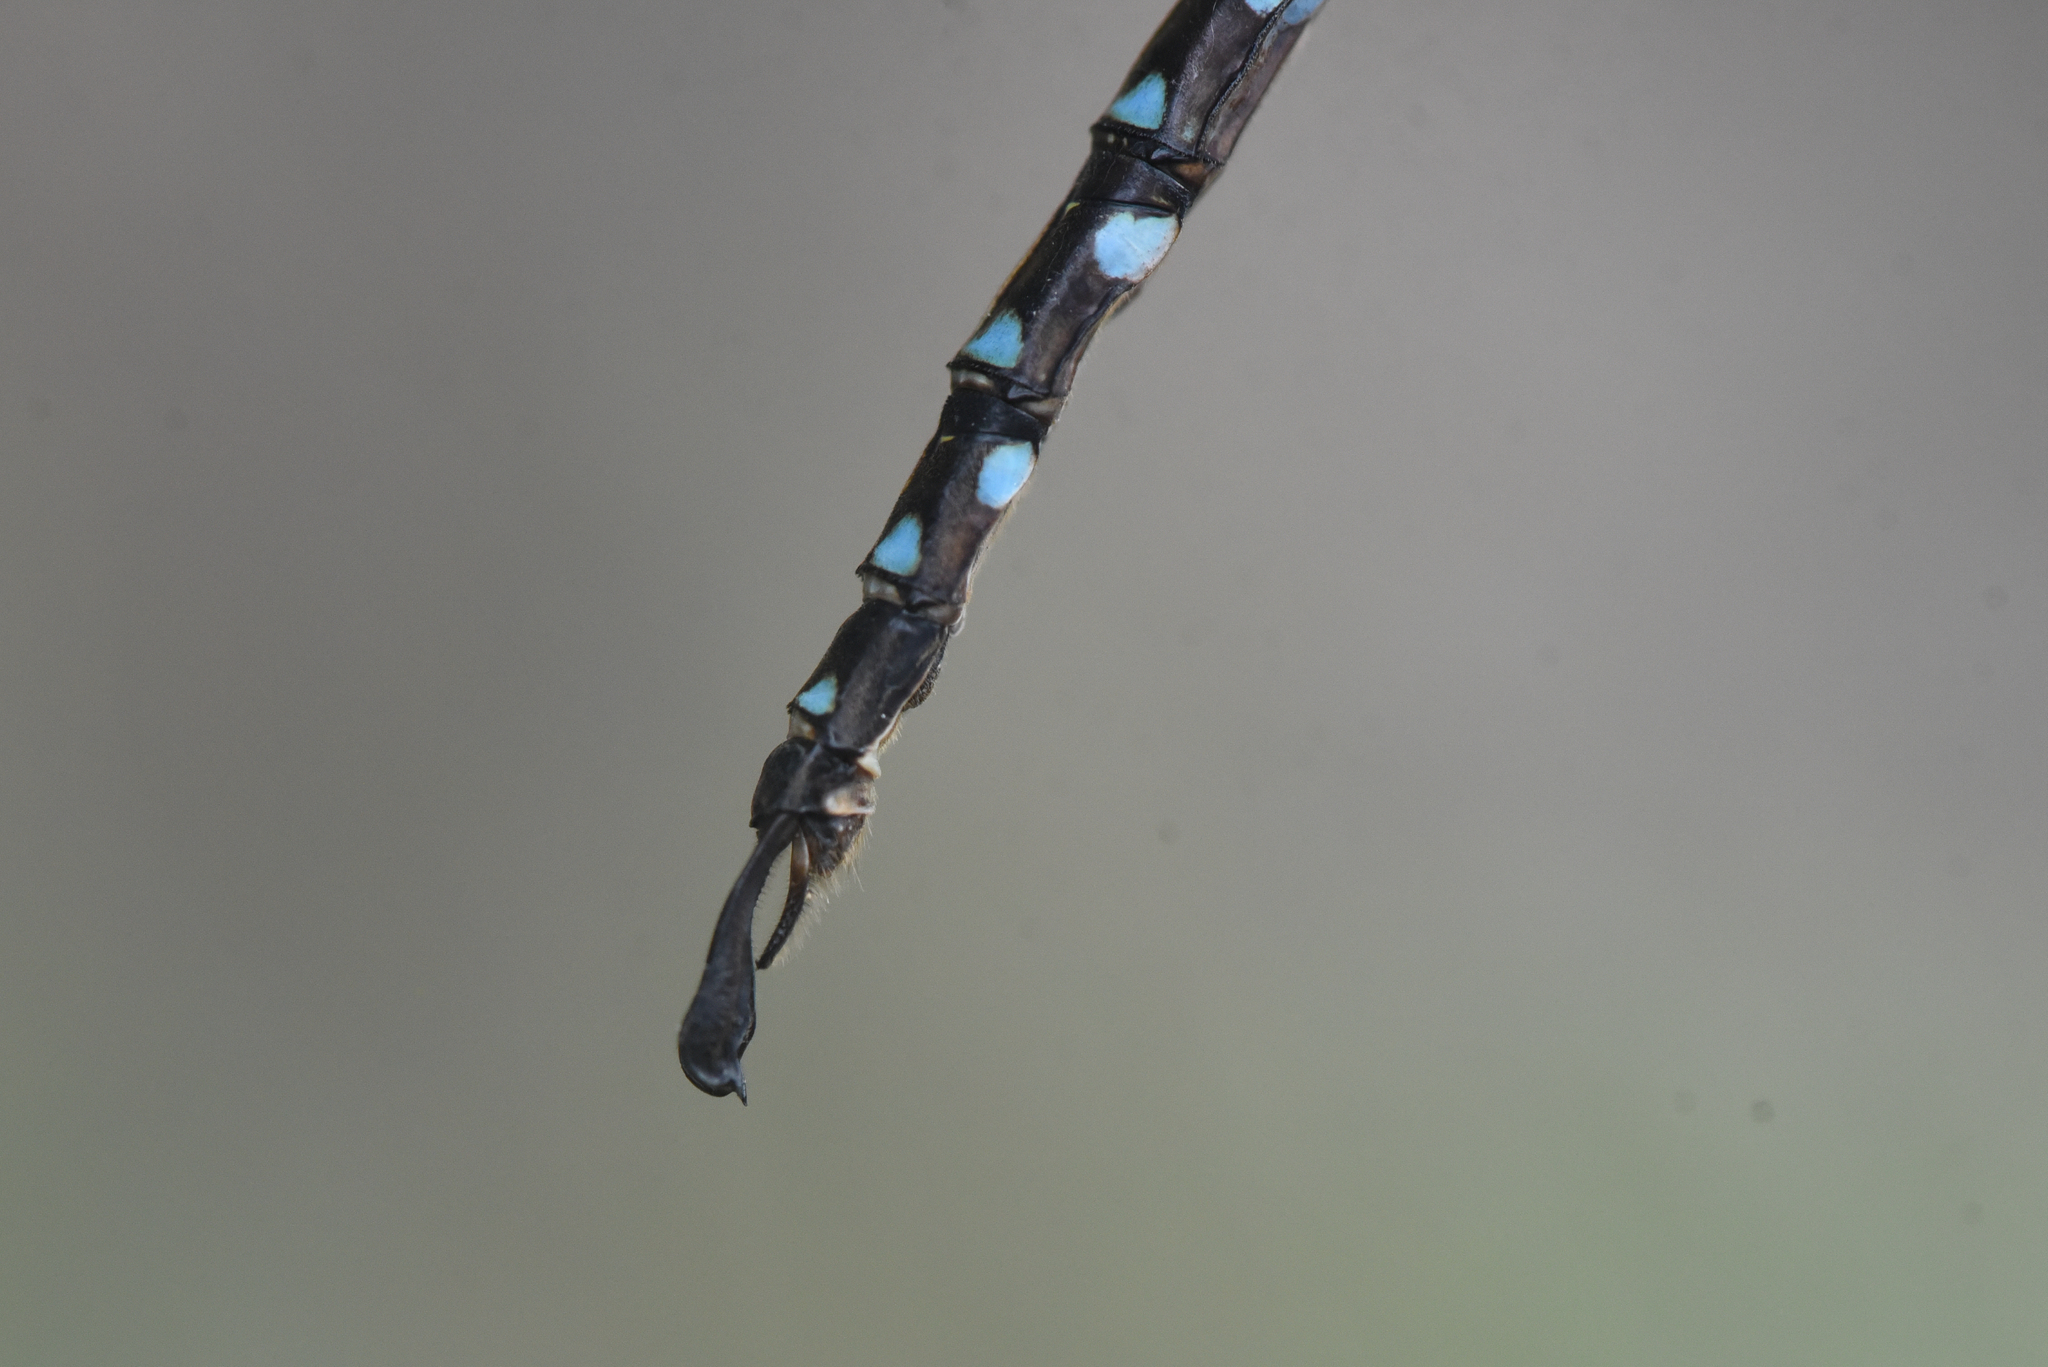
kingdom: Animalia
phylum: Arthropoda
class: Insecta
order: Odonata
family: Aeshnidae
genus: Aeshna
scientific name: Aeshna umbrosa
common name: Shadow darner
